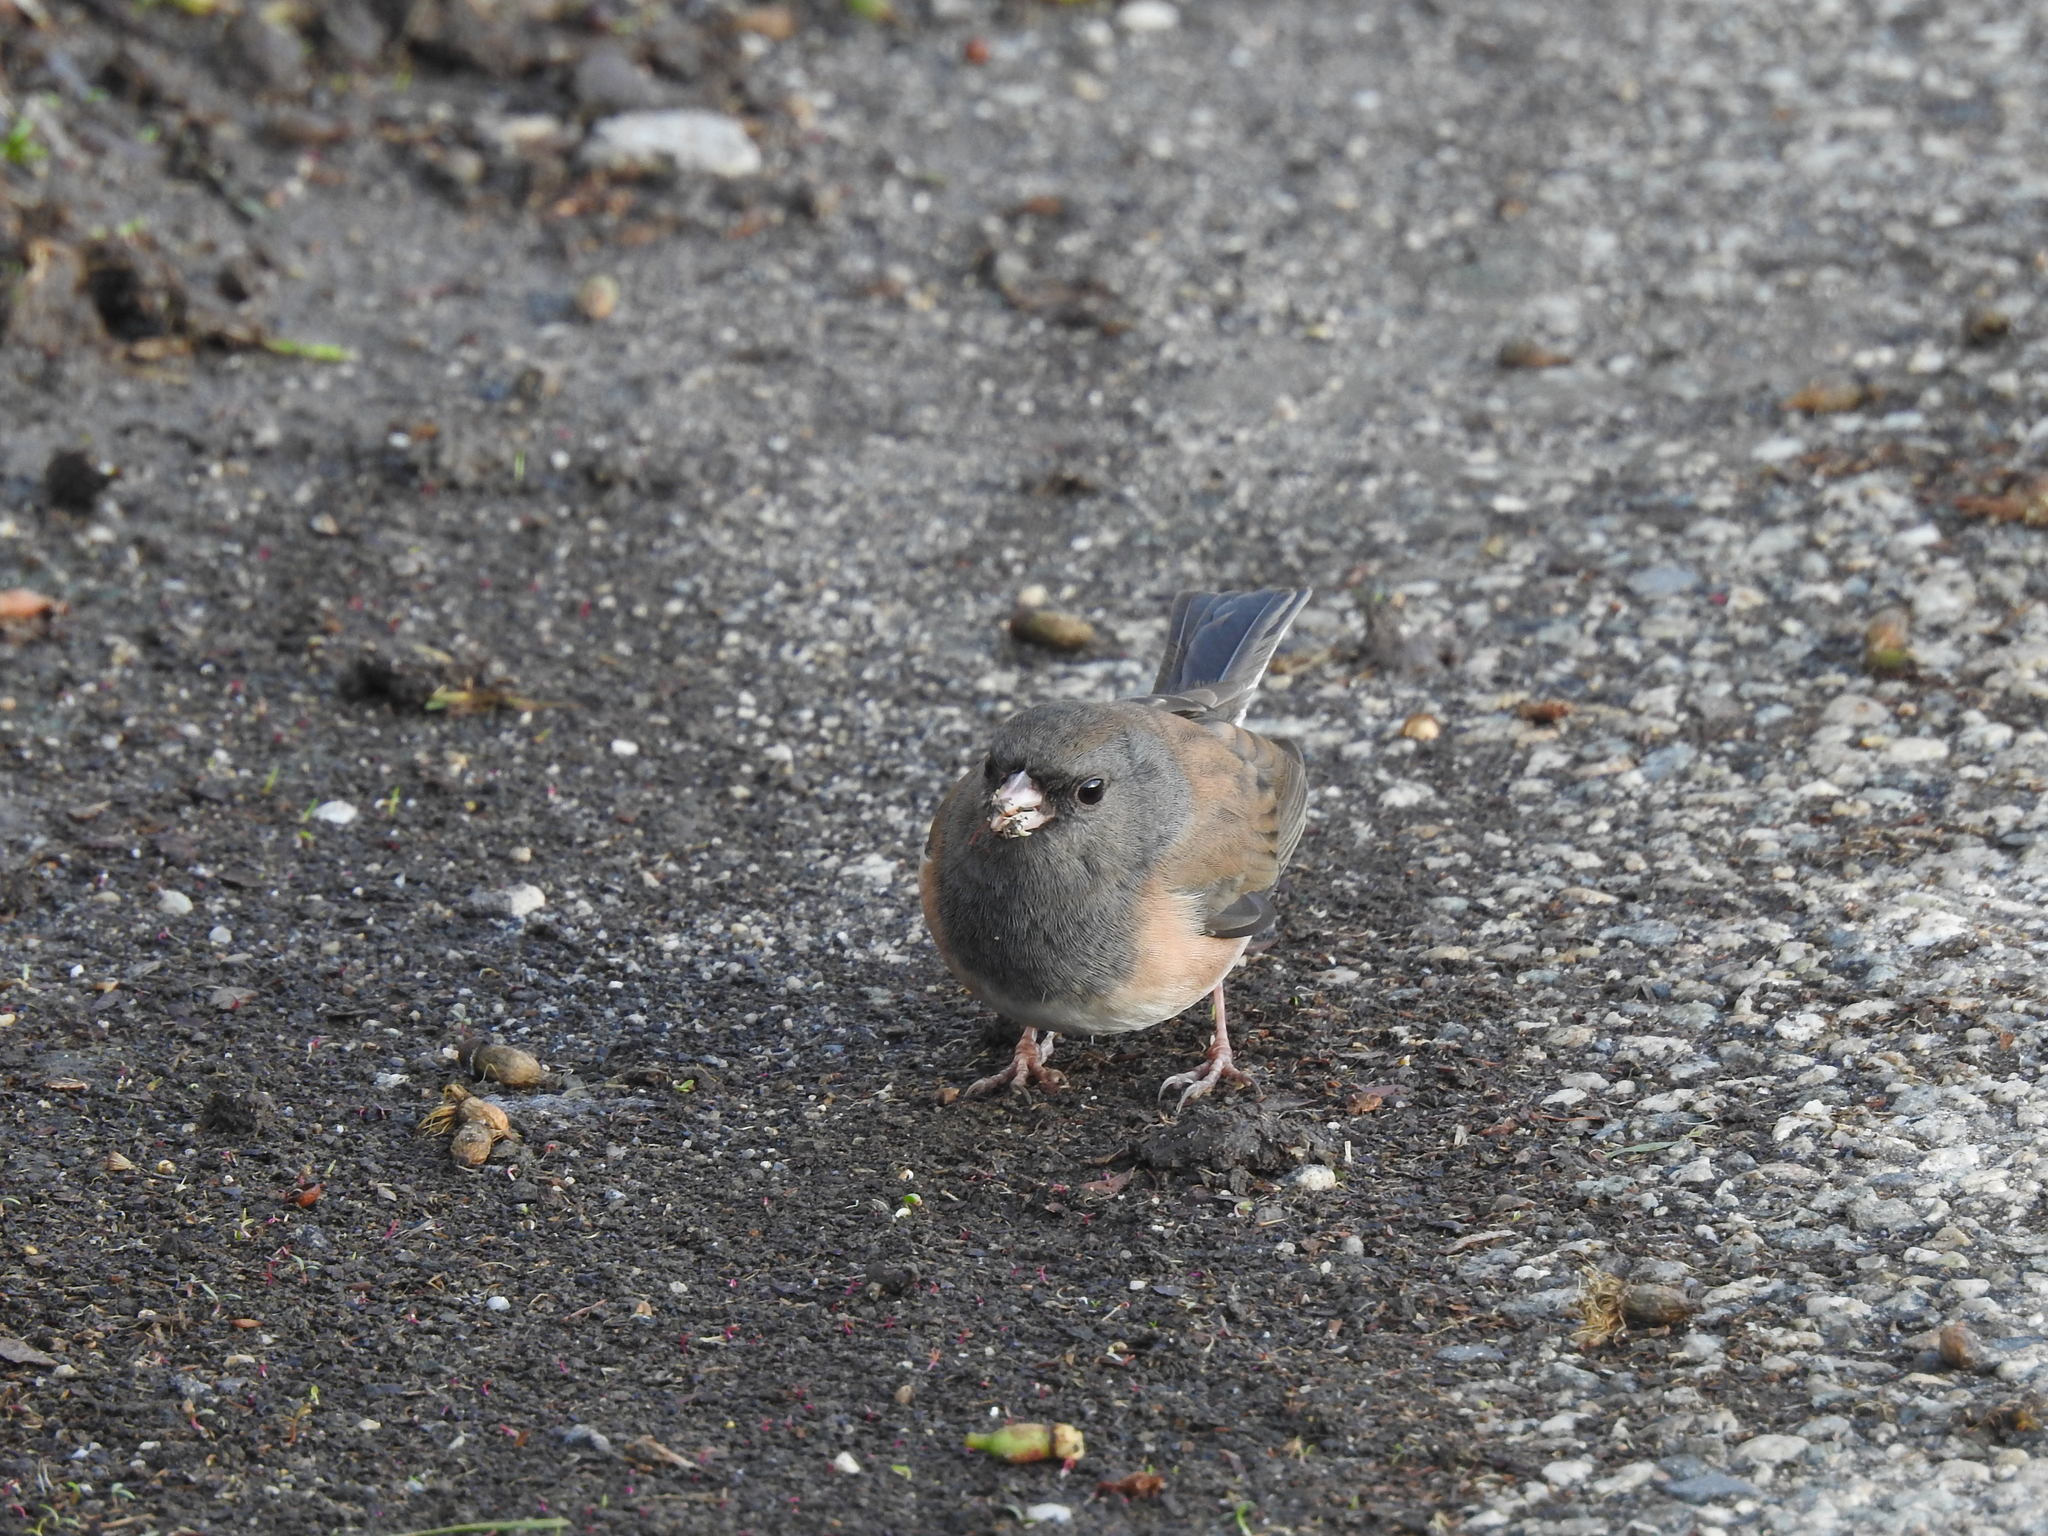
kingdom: Animalia
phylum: Chordata
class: Aves
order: Passeriformes
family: Passerellidae
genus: Junco
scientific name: Junco hyemalis
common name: Dark-eyed junco
